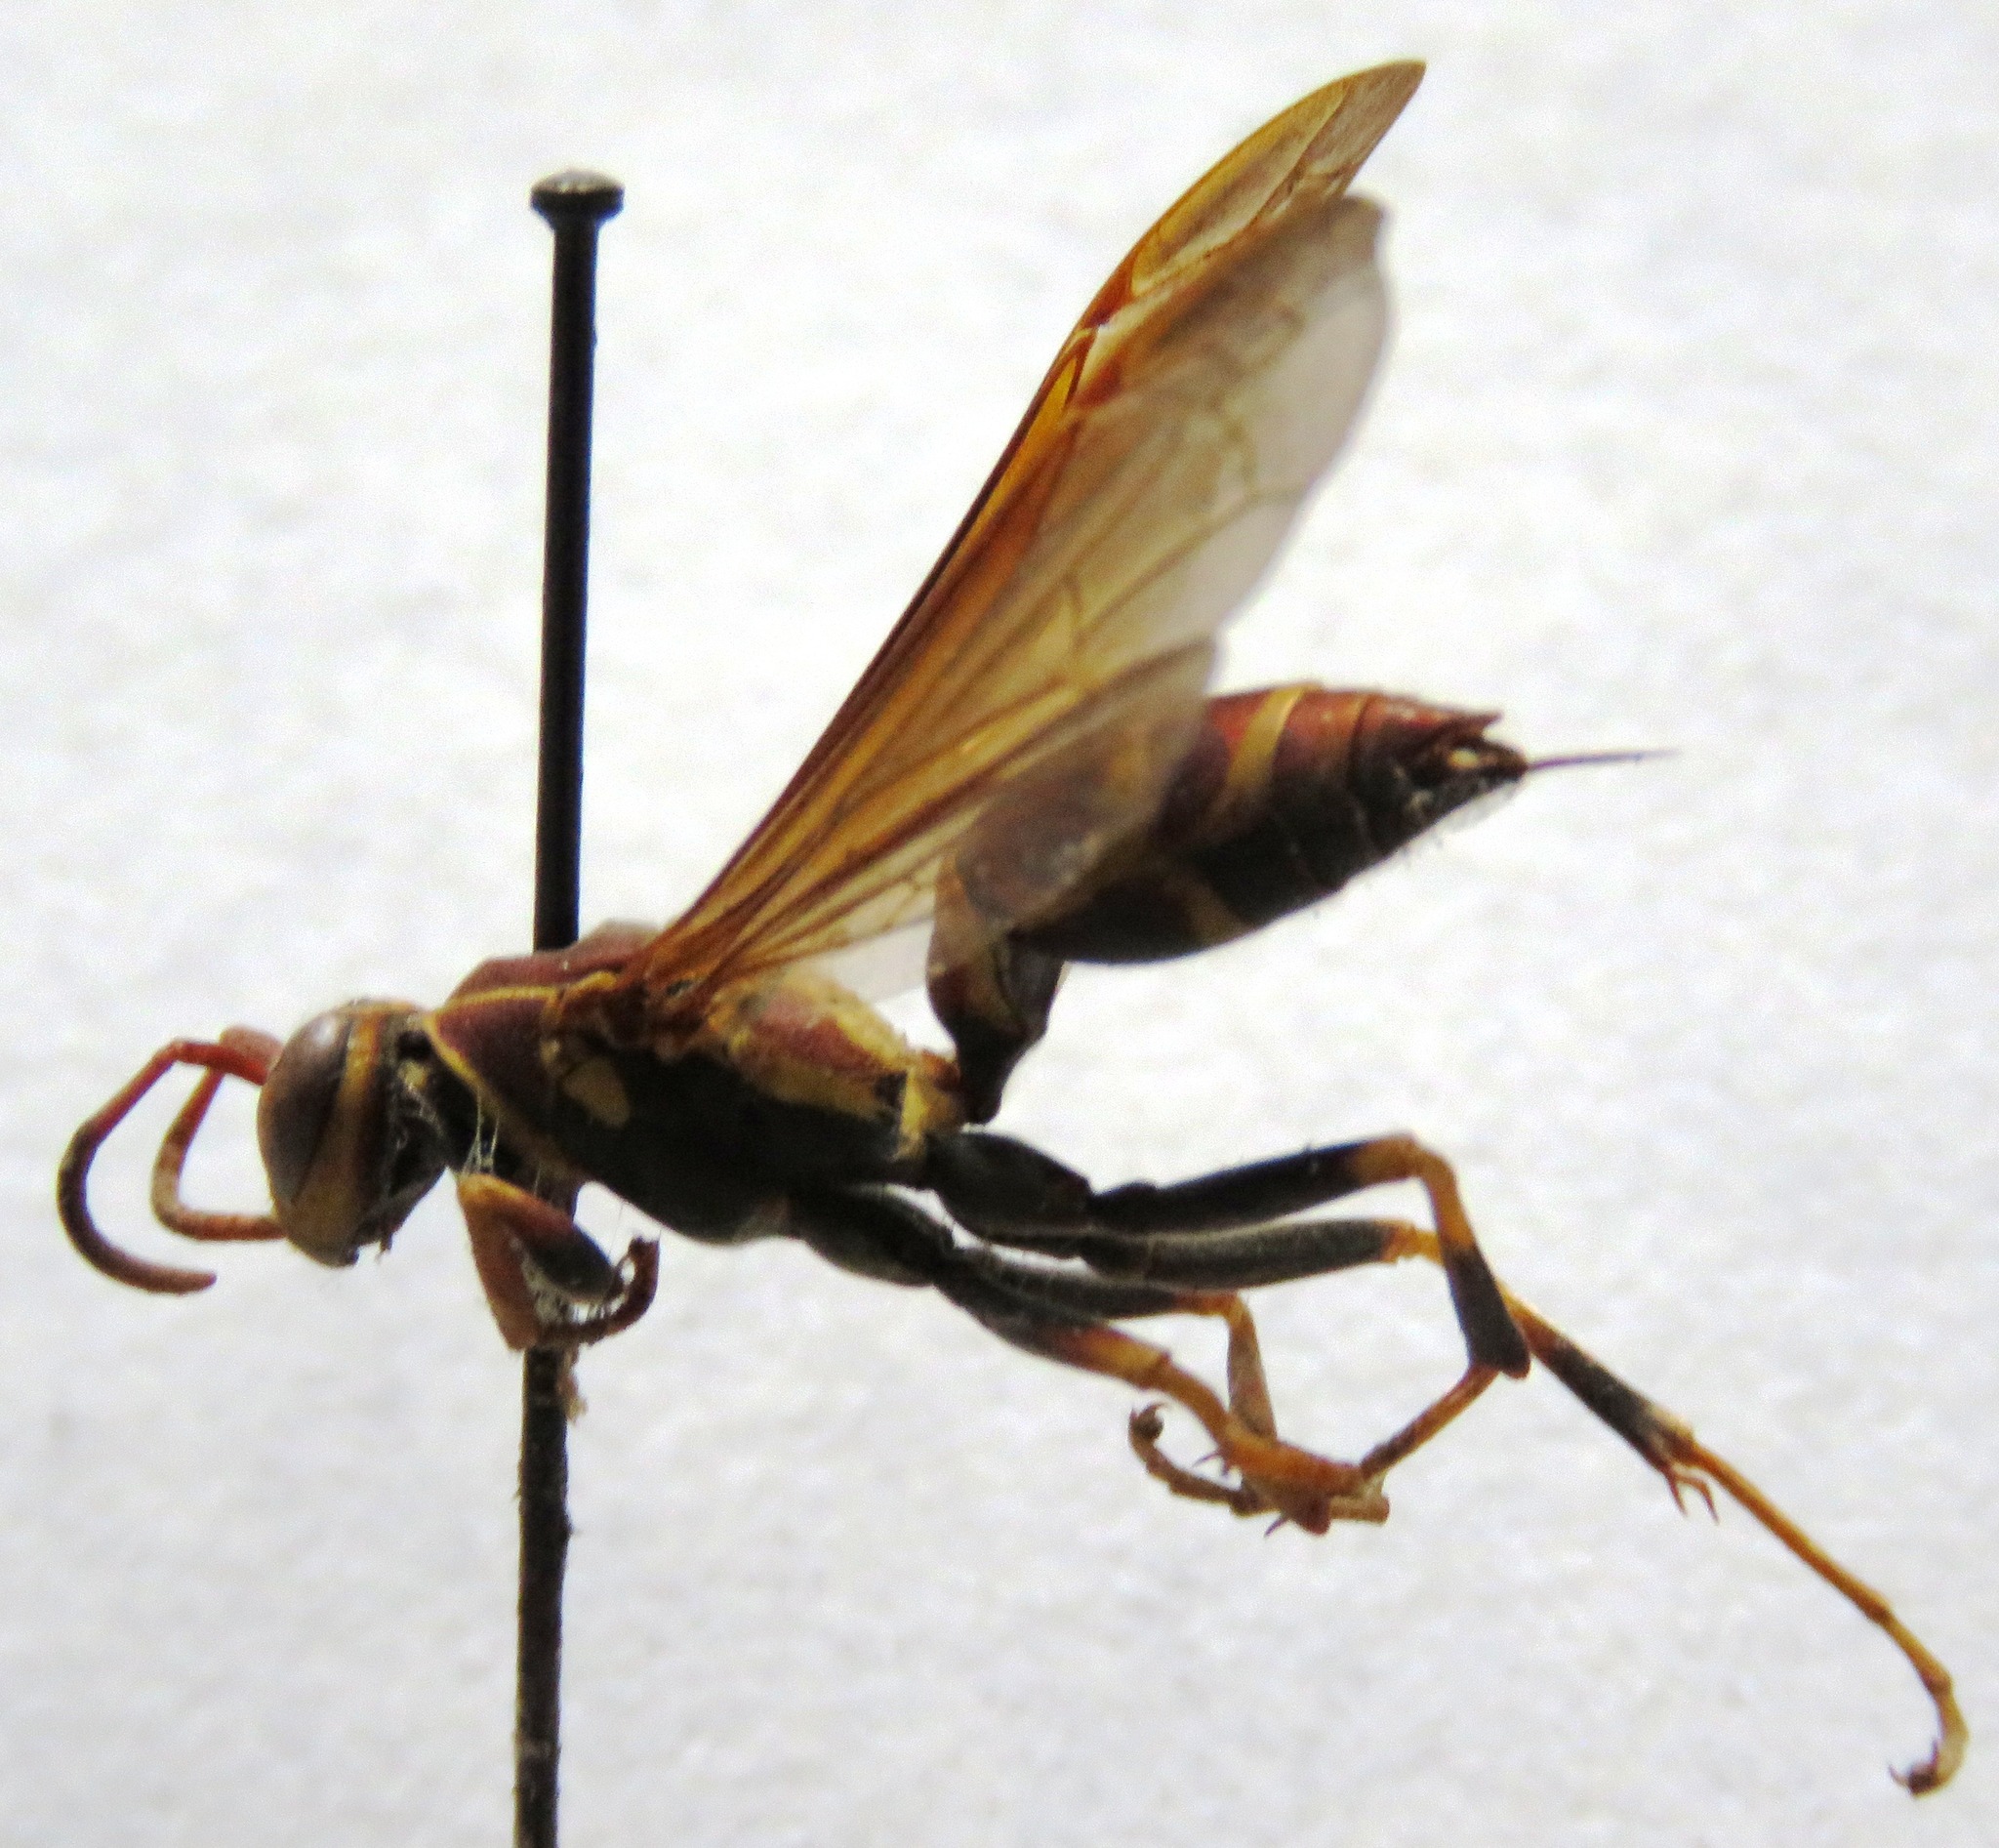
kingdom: Animalia
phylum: Arthropoda
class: Insecta
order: Hymenoptera
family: Eumenidae
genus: Polistes
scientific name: Polistes instabilis
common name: Unstable paper wasp
